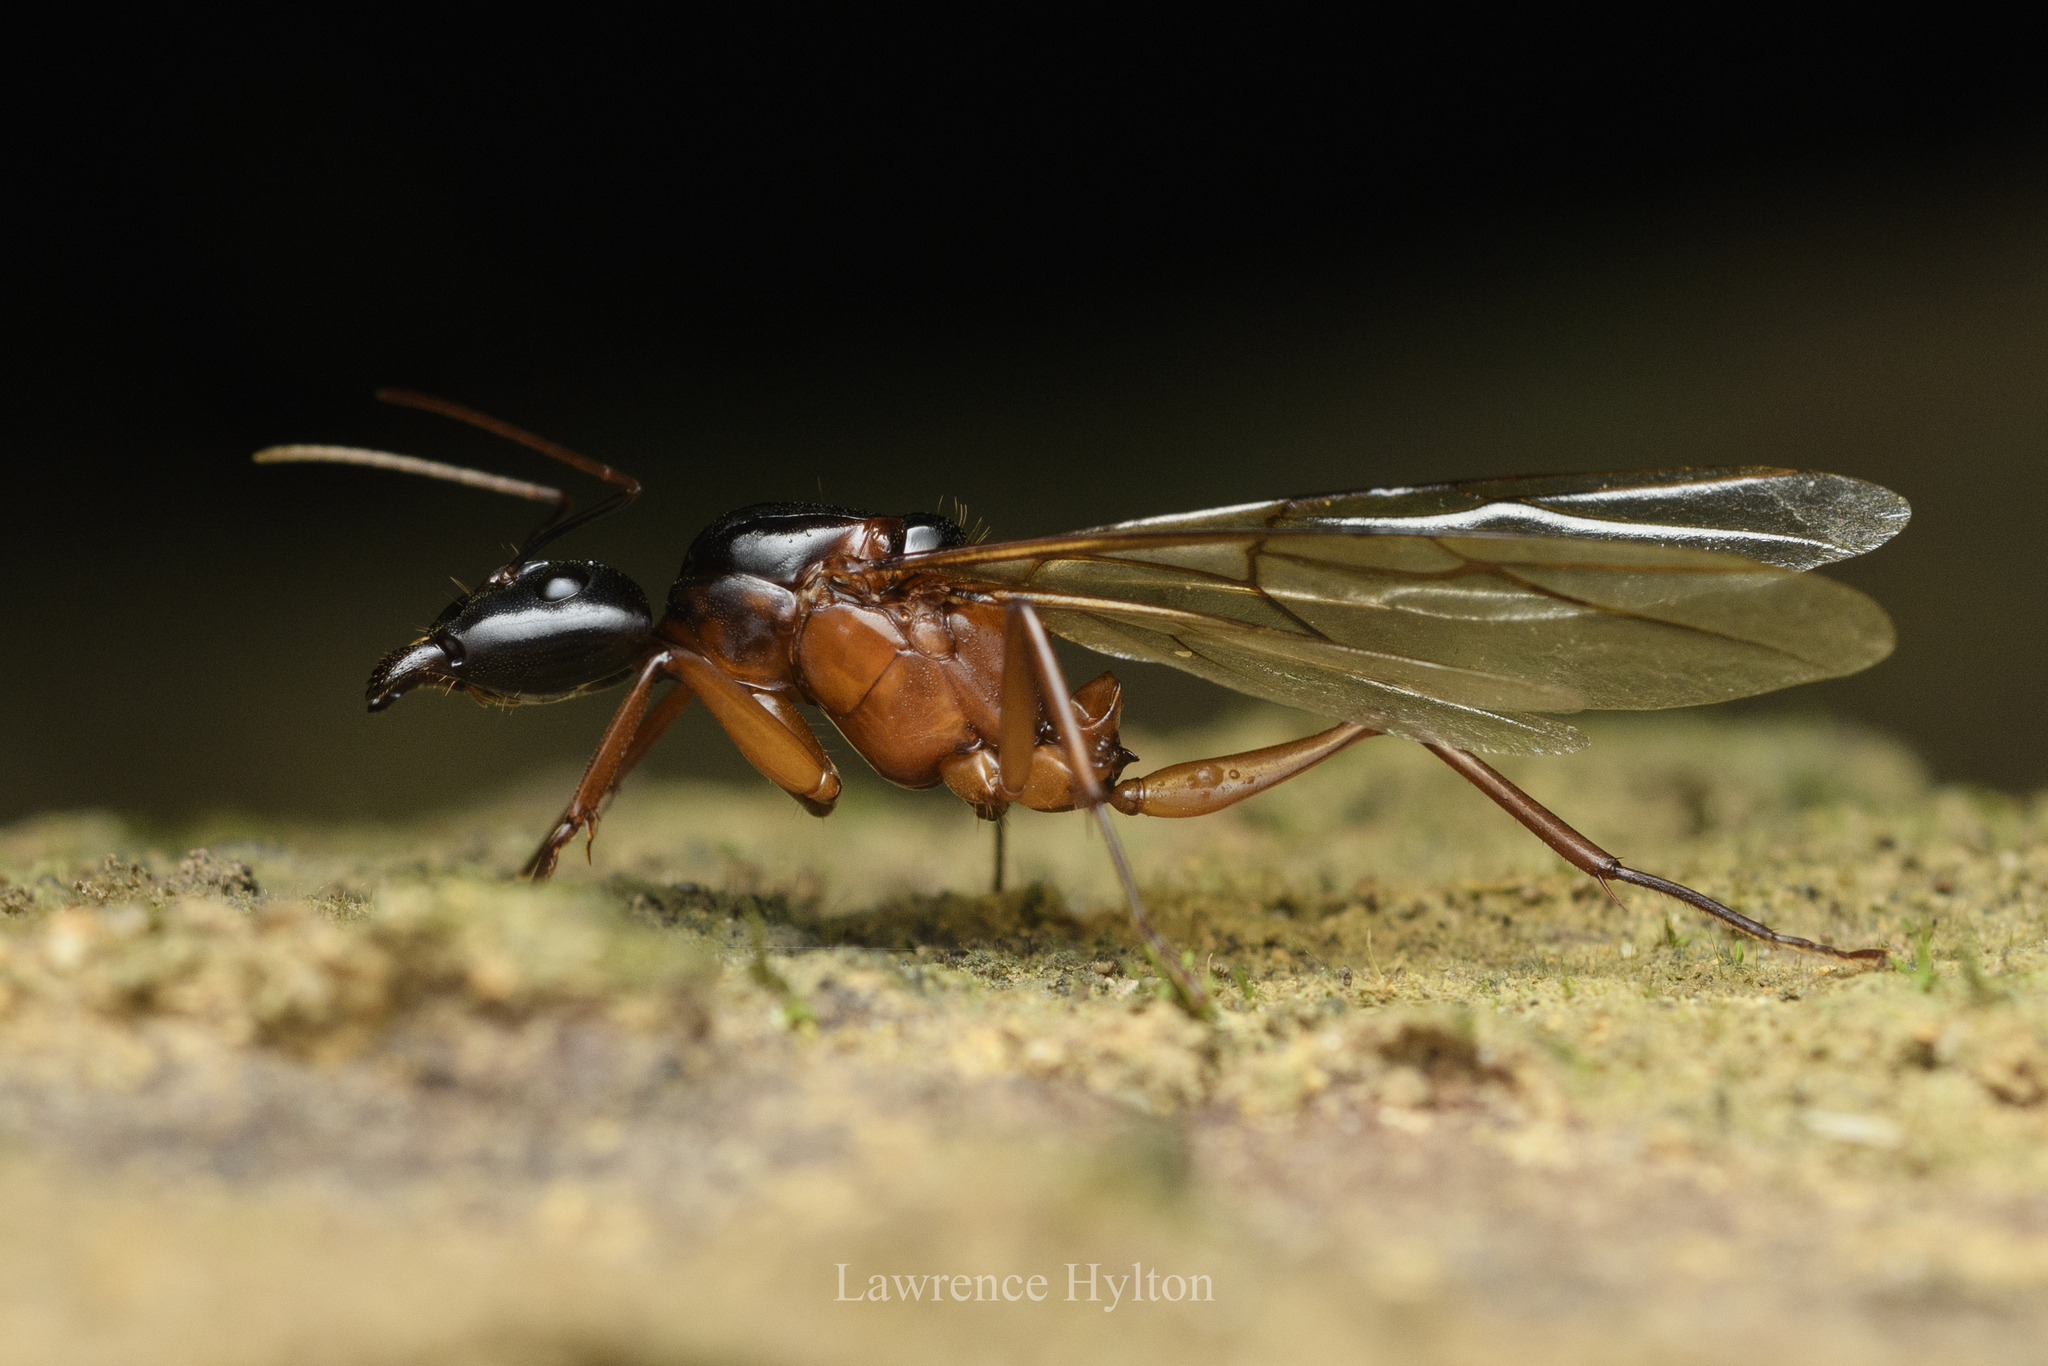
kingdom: Animalia
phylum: Arthropoda
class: Insecta
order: Hymenoptera
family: Formicidae
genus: Camponotus
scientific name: Camponotus festinus
